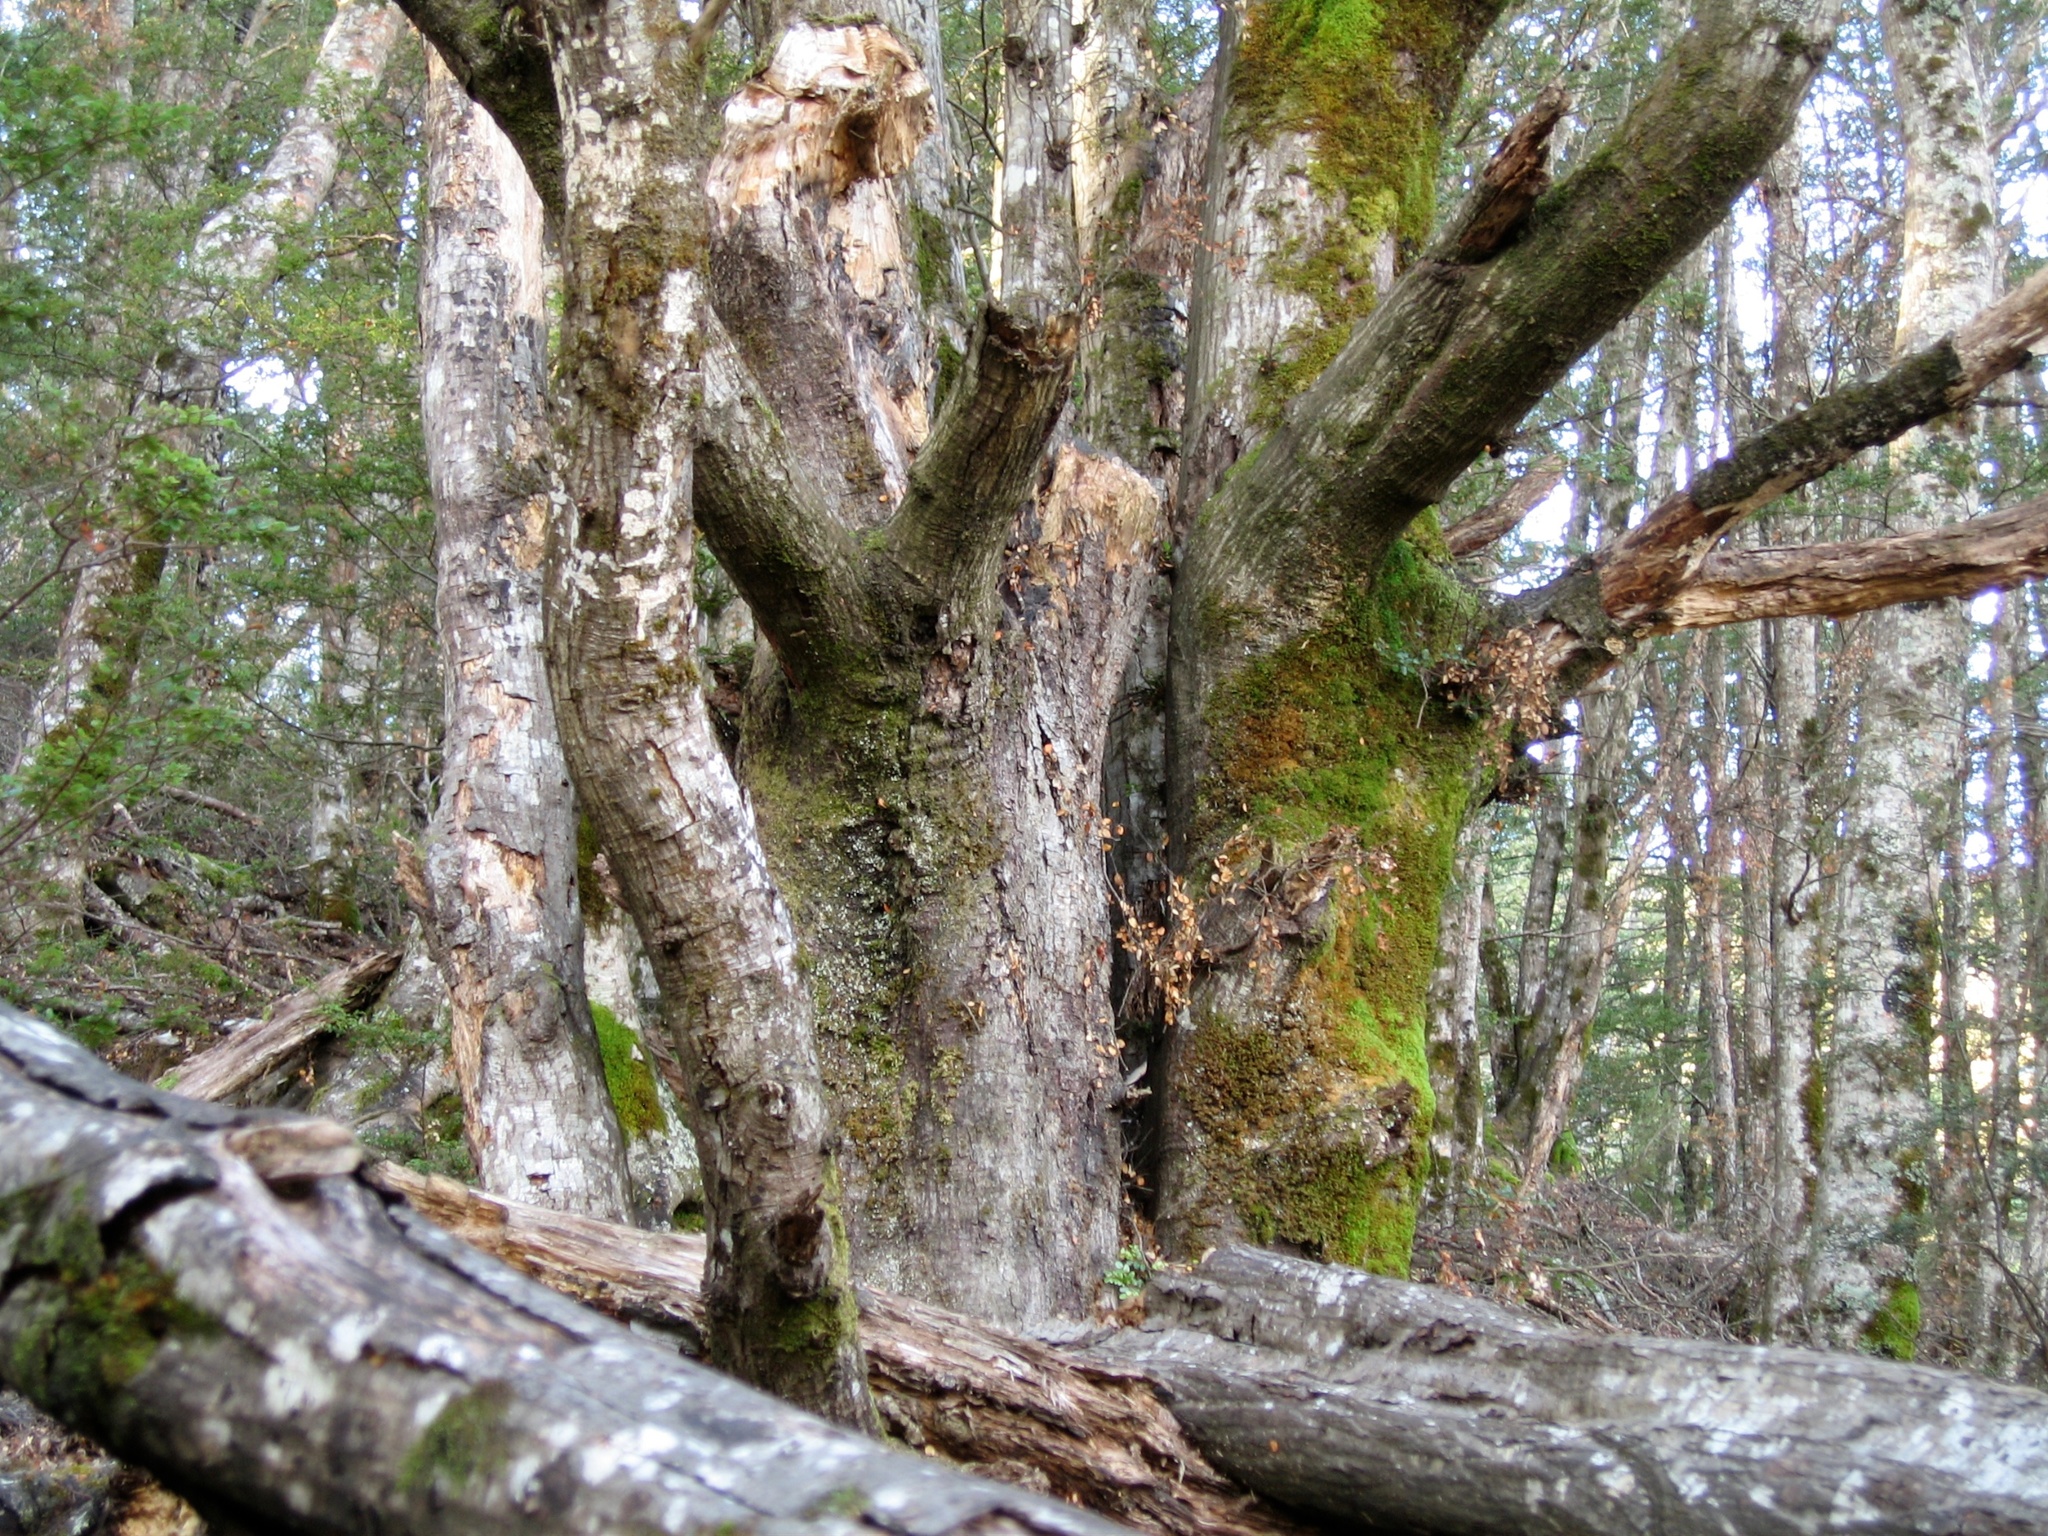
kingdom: Plantae
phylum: Tracheophyta
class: Magnoliopsida
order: Fagales
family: Nothofagaceae
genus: Nothofagus
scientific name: Nothofagus cliffortioides
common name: Mountain beech
